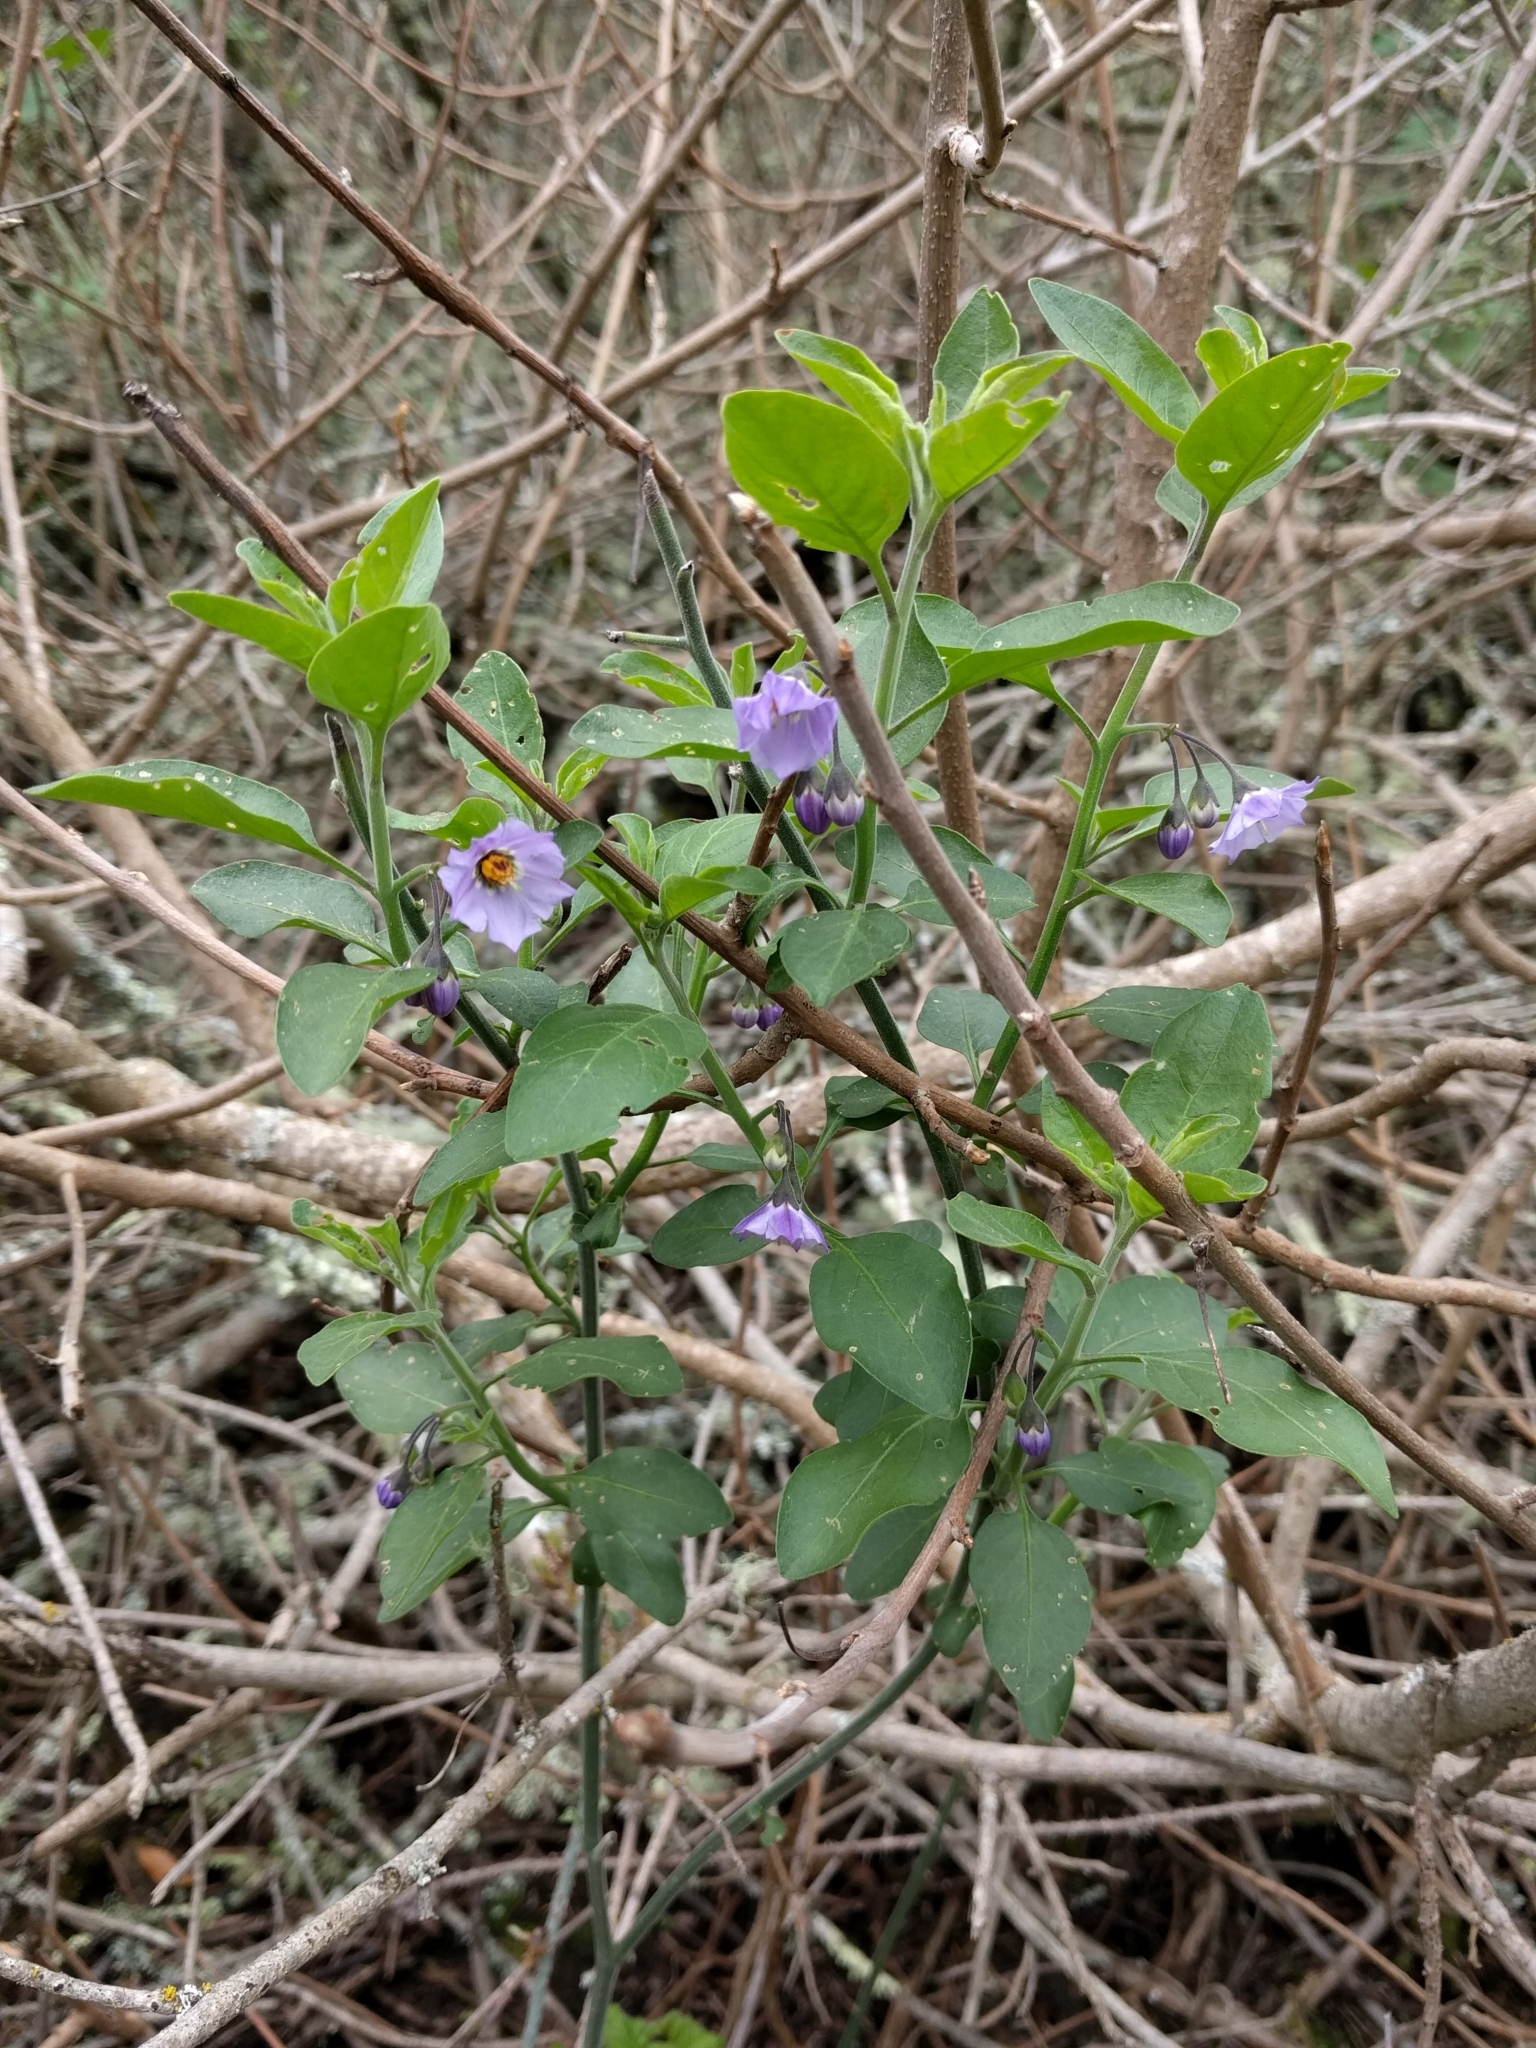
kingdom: Plantae
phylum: Tracheophyta
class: Magnoliopsida
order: Solanales
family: Solanaceae
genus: Solanum
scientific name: Solanum umbelliferum
